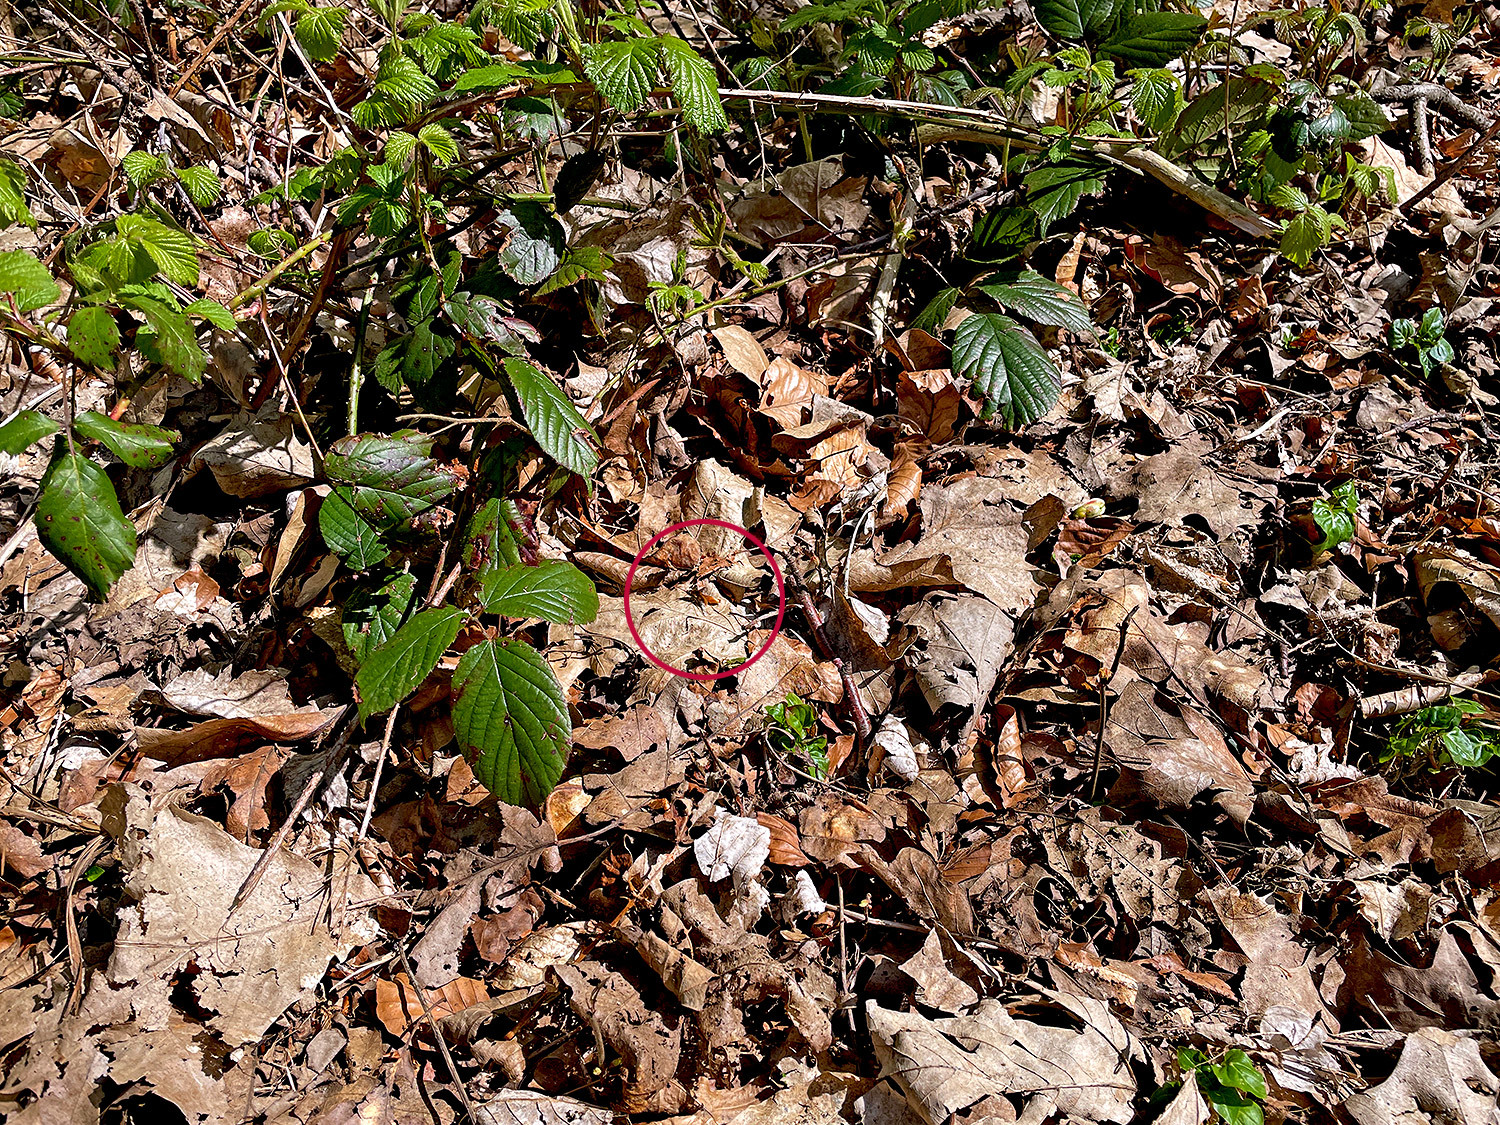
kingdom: Animalia
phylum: Arthropoda
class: Insecta
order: Diptera
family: Bombyliidae
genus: Bombylius
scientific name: Bombylius major
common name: Bee fly
